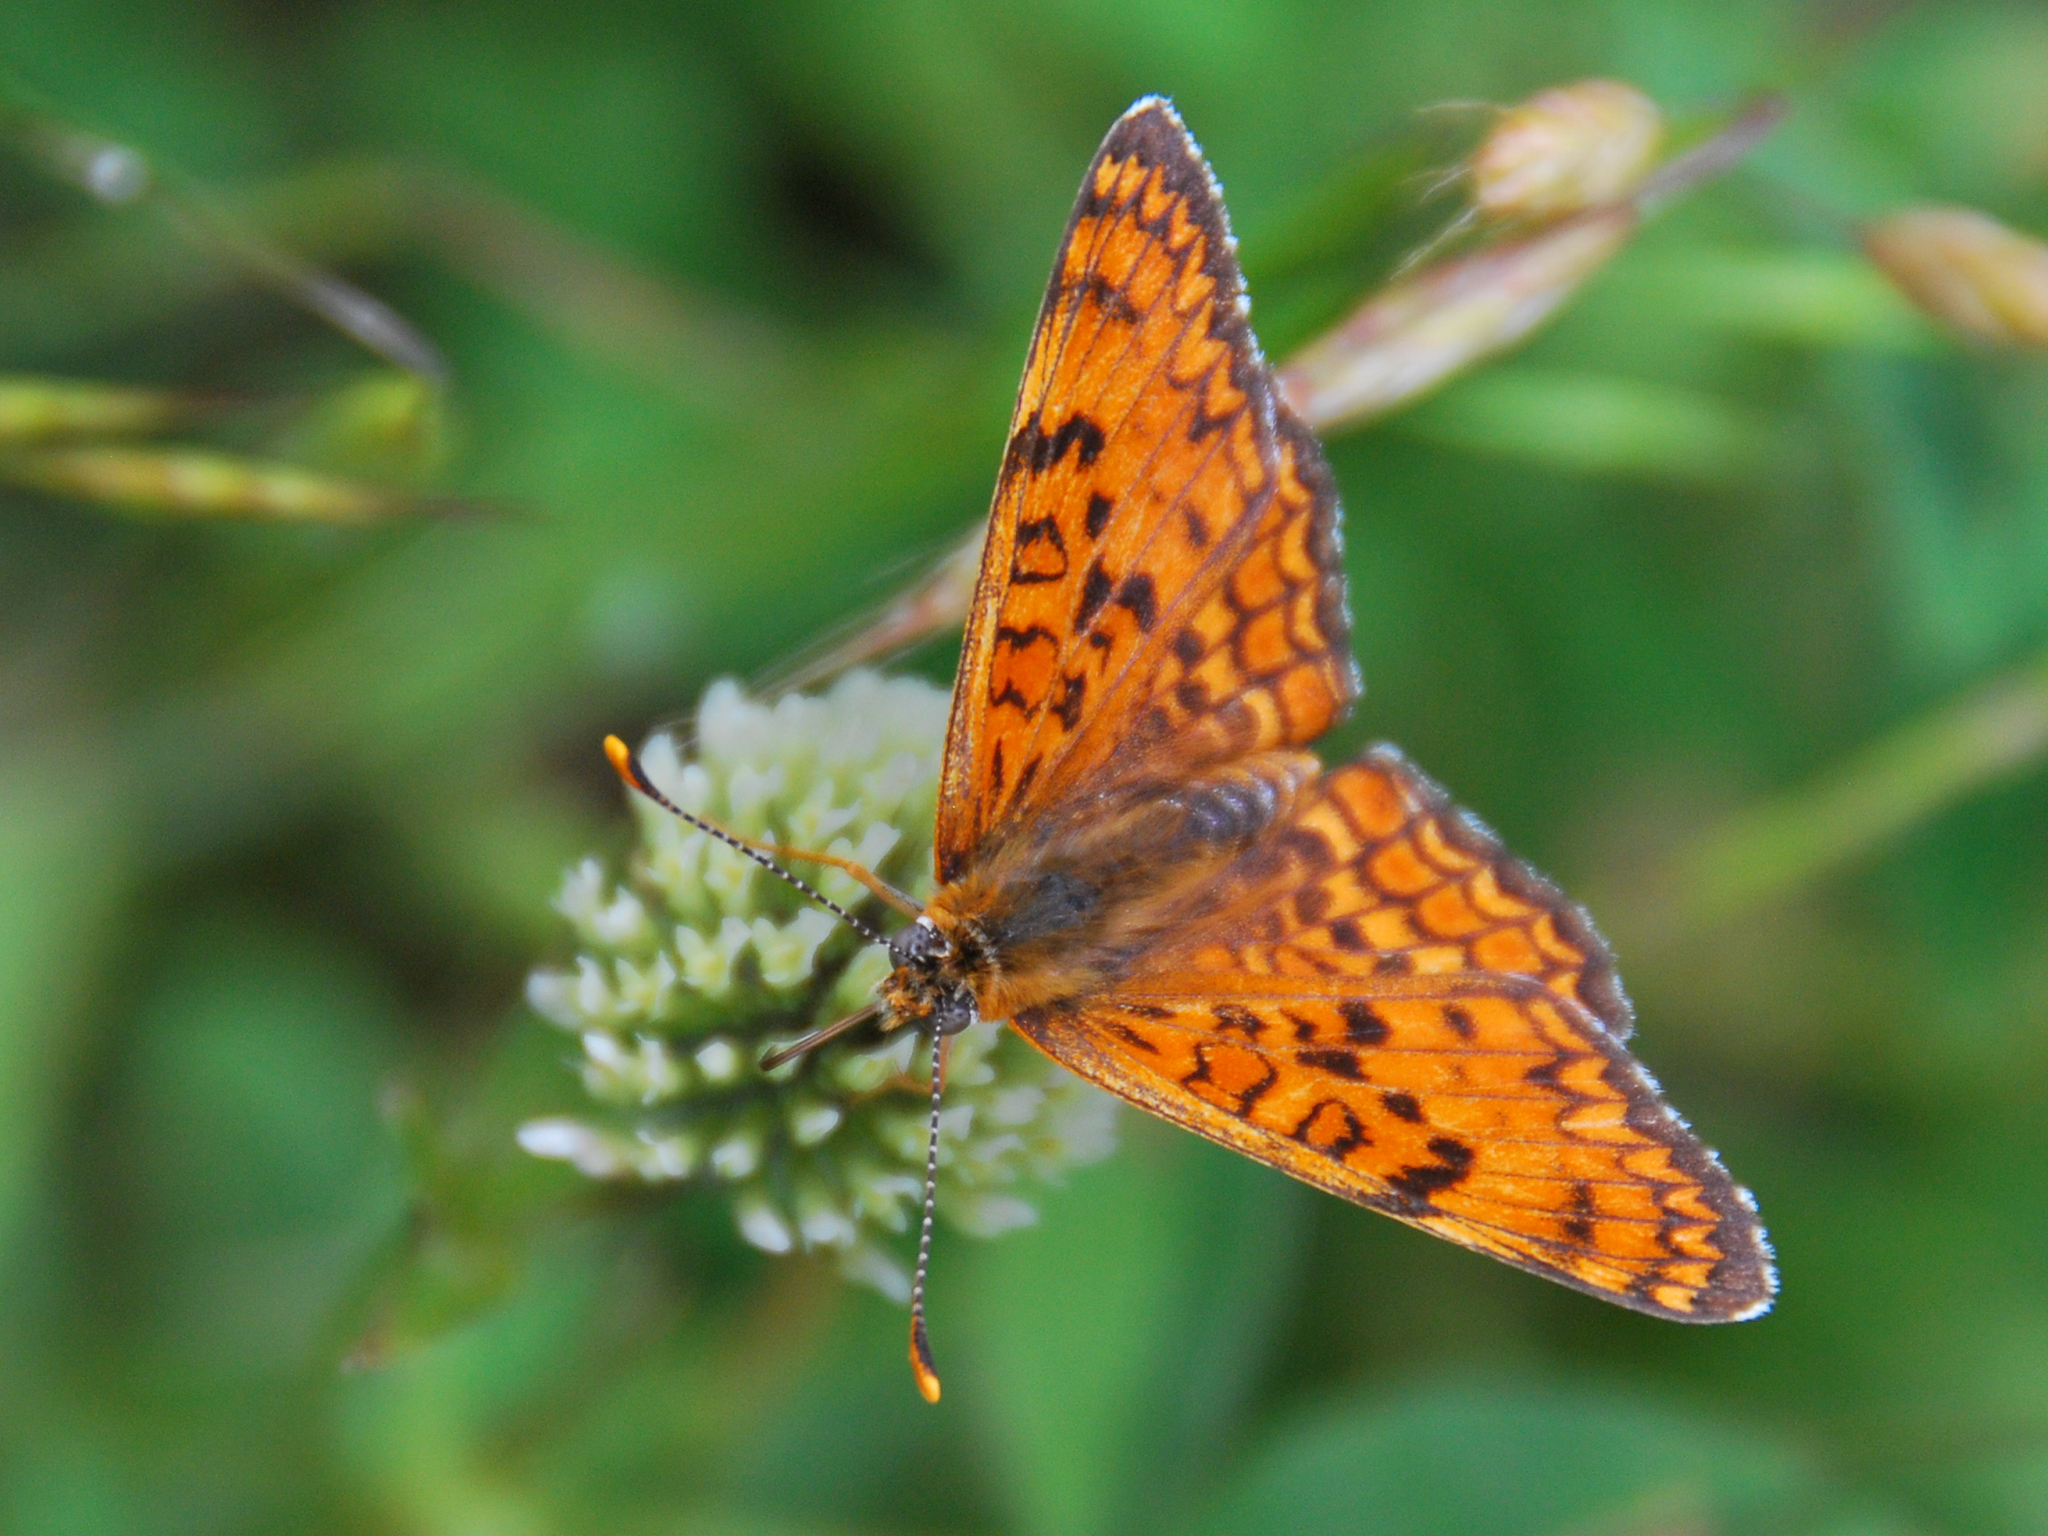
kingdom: Animalia
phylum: Arthropoda
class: Insecta
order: Lepidoptera
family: Nymphalidae
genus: Melitaea
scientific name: Melitaea phoebe
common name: Knapweed fritillary
